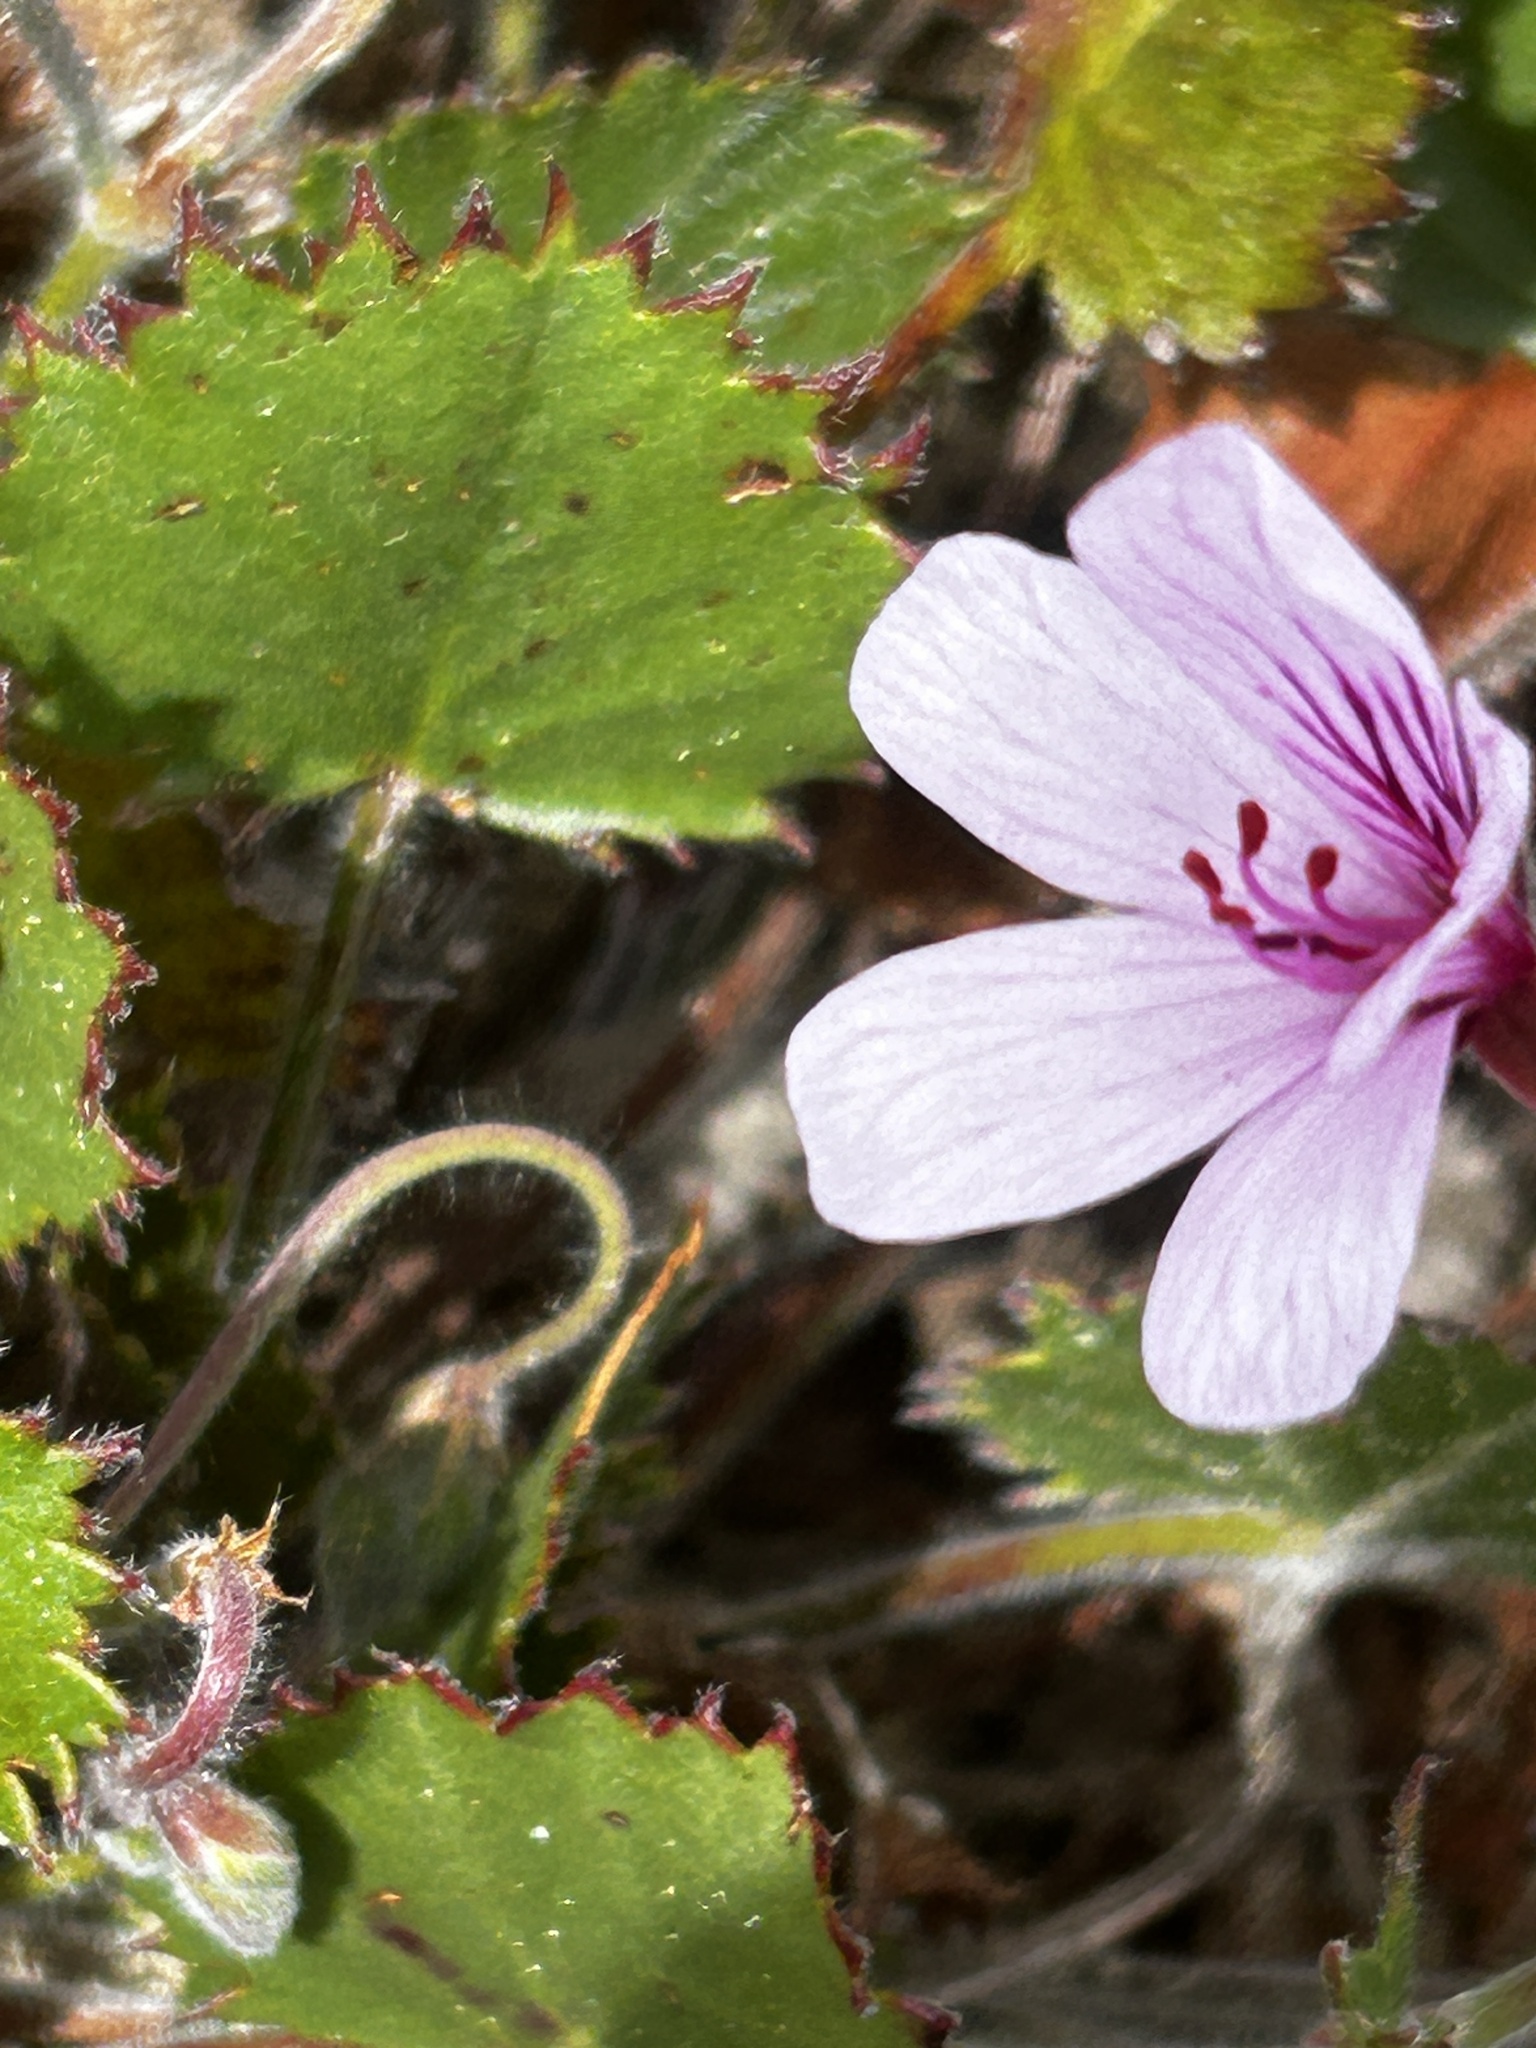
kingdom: Plantae
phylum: Tracheophyta
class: Magnoliopsida
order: Geraniales
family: Geraniaceae
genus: Pelargonium
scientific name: Pelargonium elegans
